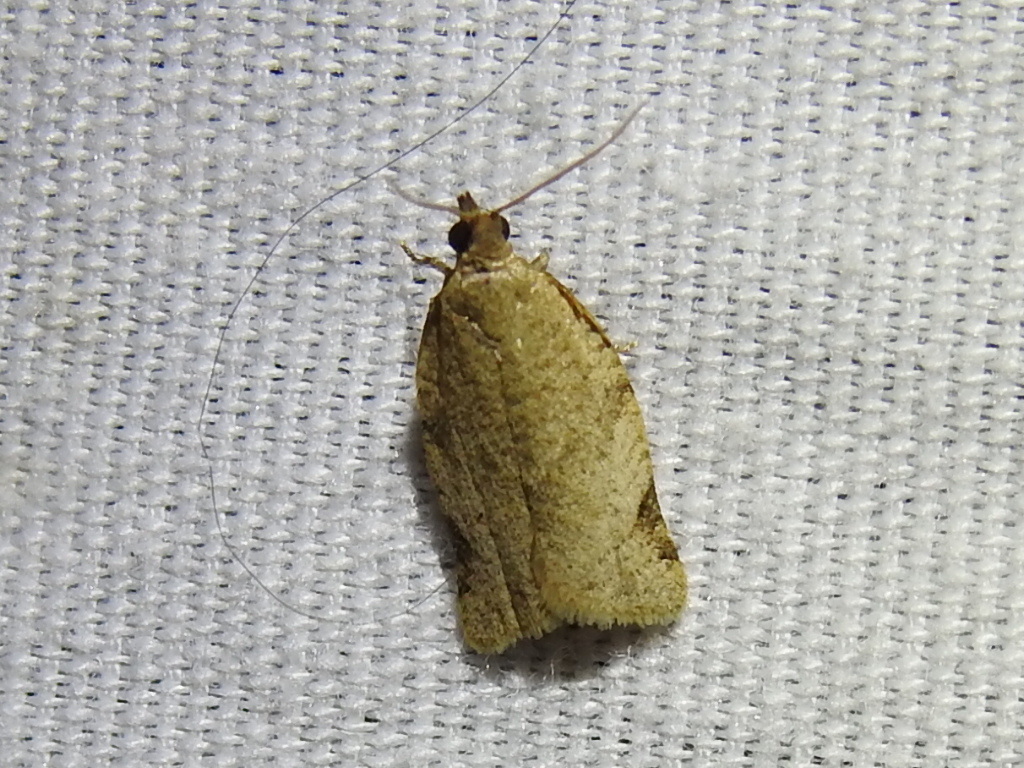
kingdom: Animalia
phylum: Arthropoda
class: Insecta
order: Lepidoptera
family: Tortricidae
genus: Clepsis
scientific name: Clepsis virescana
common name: Greenish apple moth
